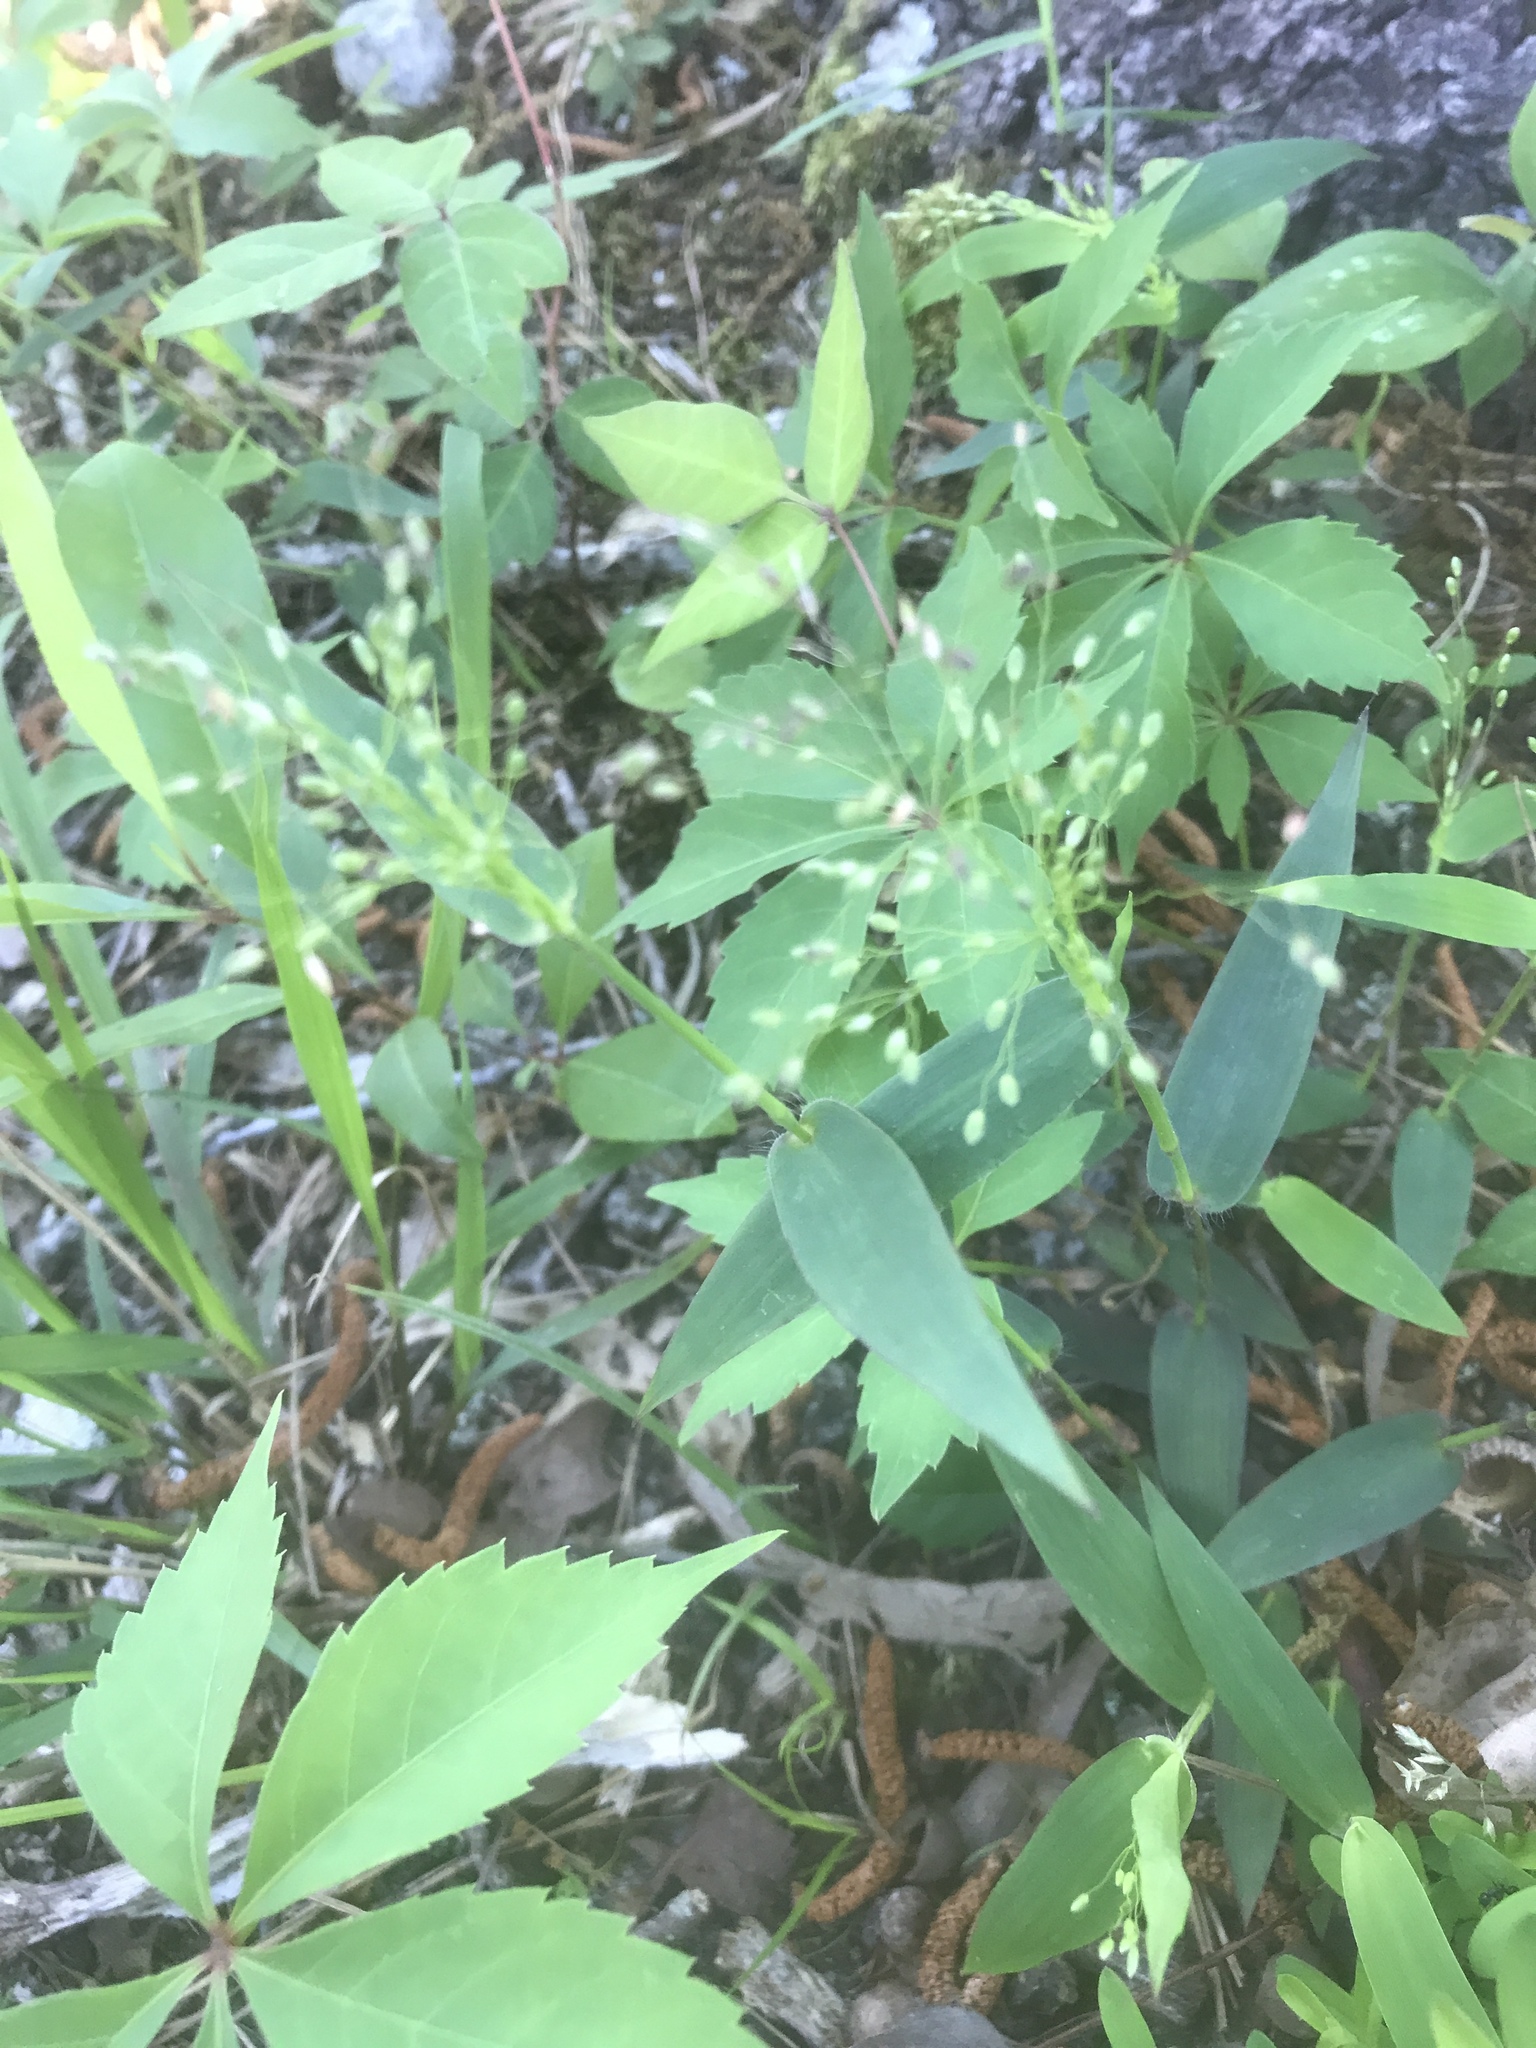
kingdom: Plantae
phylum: Tracheophyta
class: Liliopsida
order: Poales
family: Poaceae
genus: Dichanthelium
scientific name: Dichanthelium commutatum
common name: Variable witchgrass
